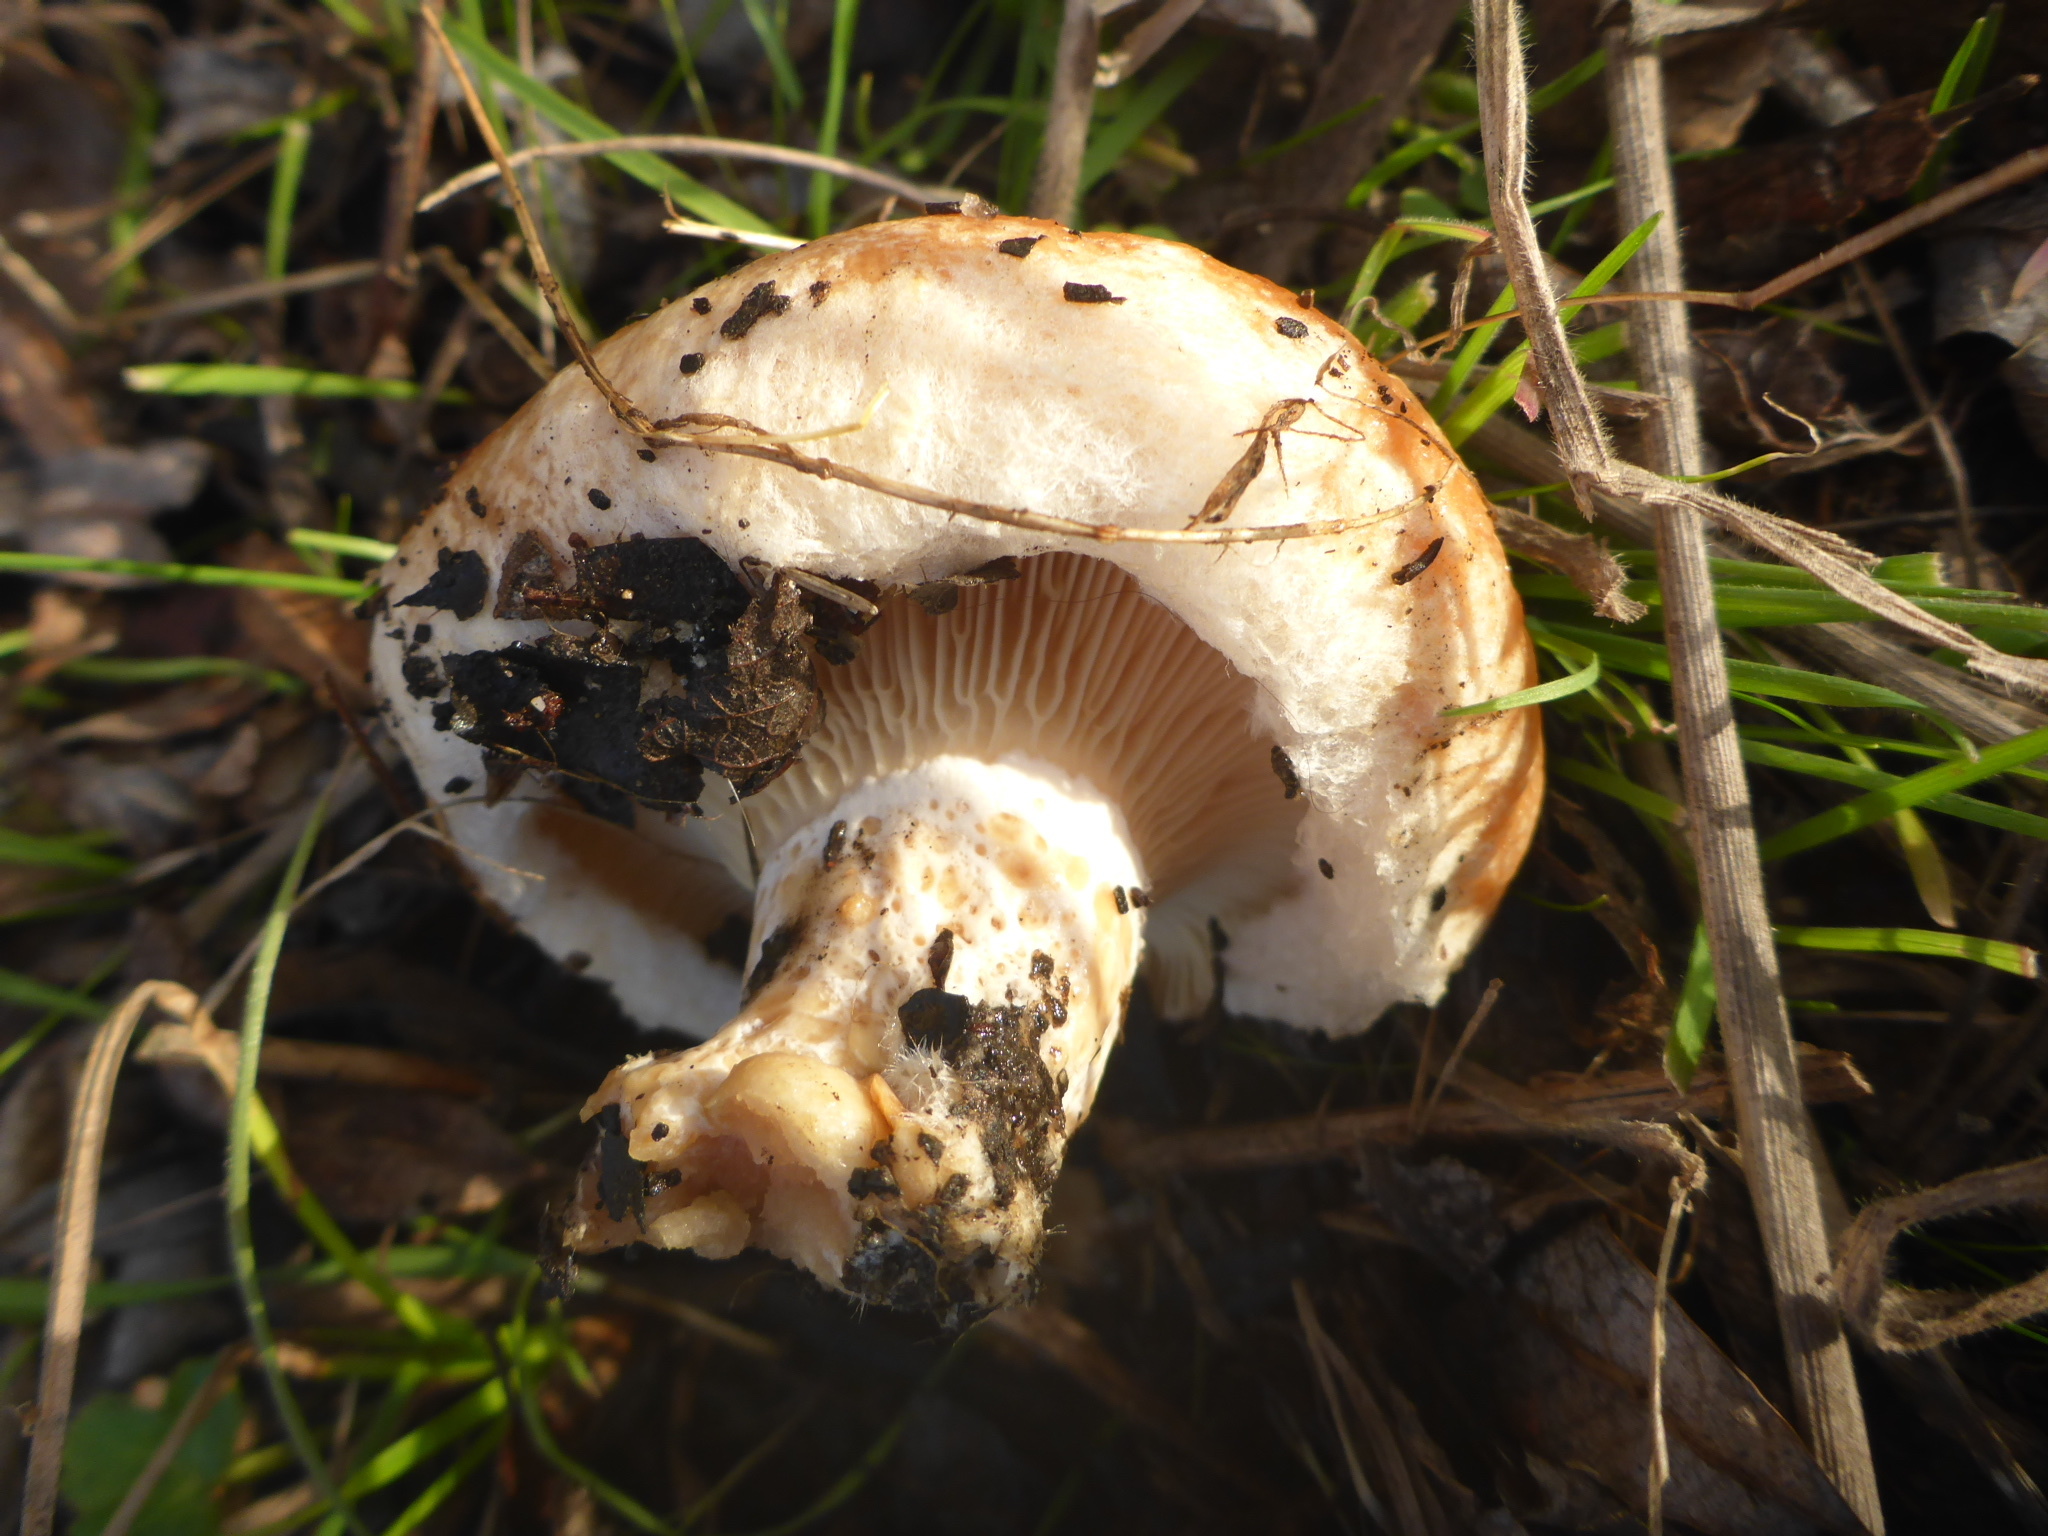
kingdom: Fungi
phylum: Basidiomycota
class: Agaricomycetes
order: Russulales
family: Russulaceae
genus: Lactarius
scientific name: Lactarius alnicola
